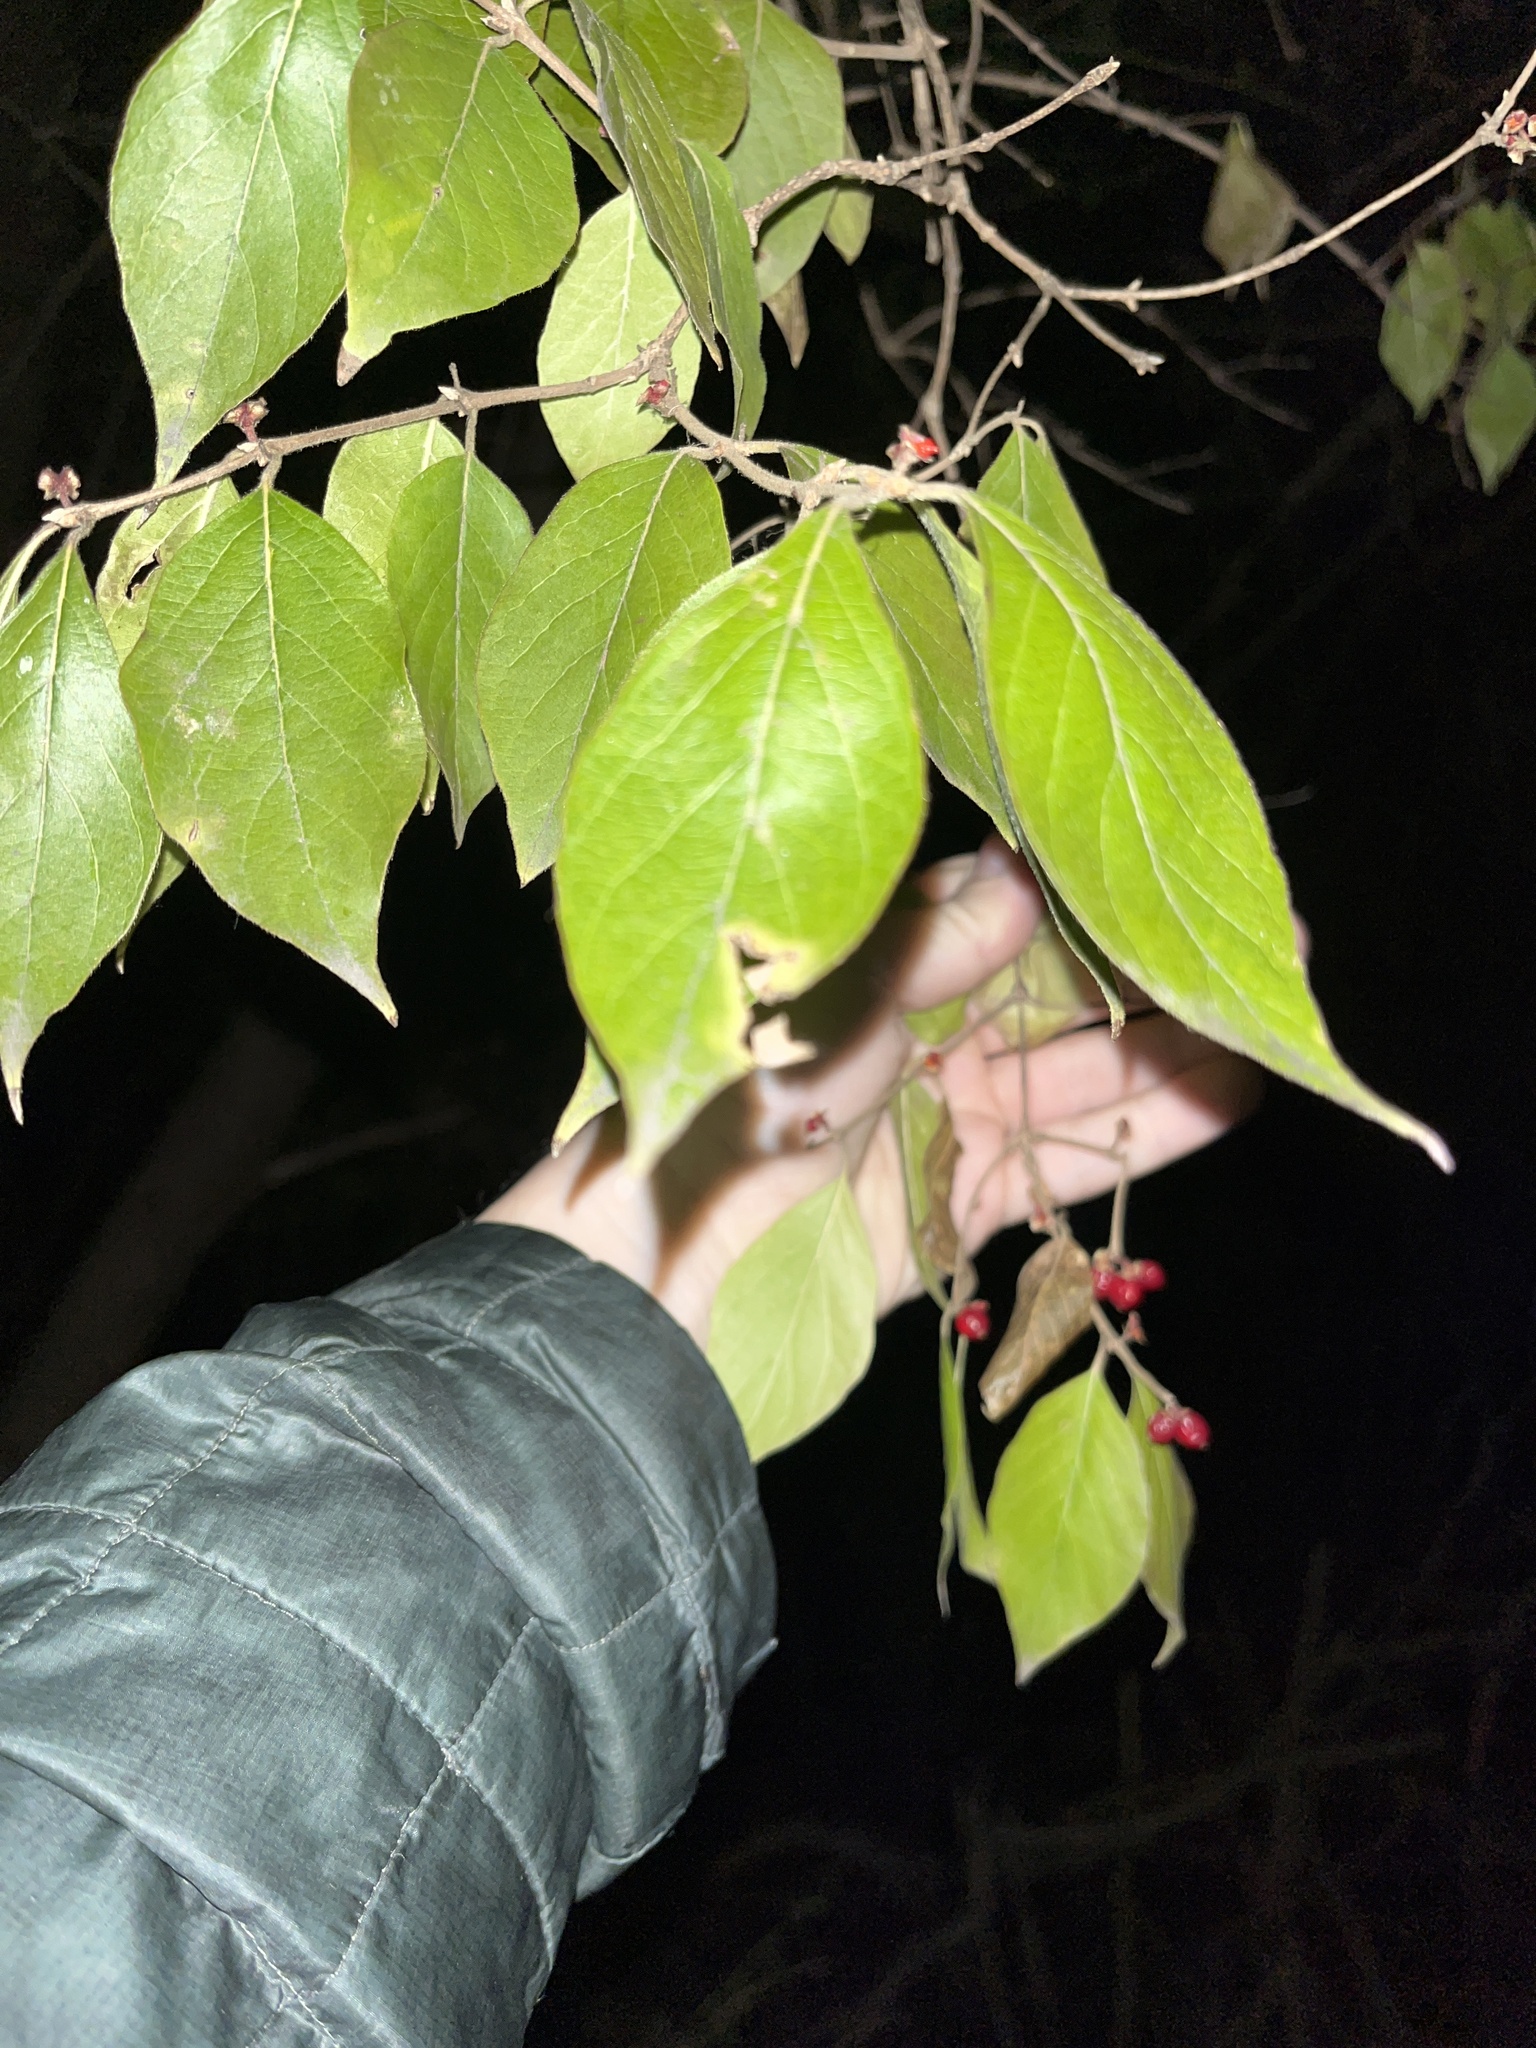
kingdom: Plantae
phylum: Tracheophyta
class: Magnoliopsida
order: Dipsacales
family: Caprifoliaceae
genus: Lonicera
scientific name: Lonicera maackii
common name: Amur honeysuckle
